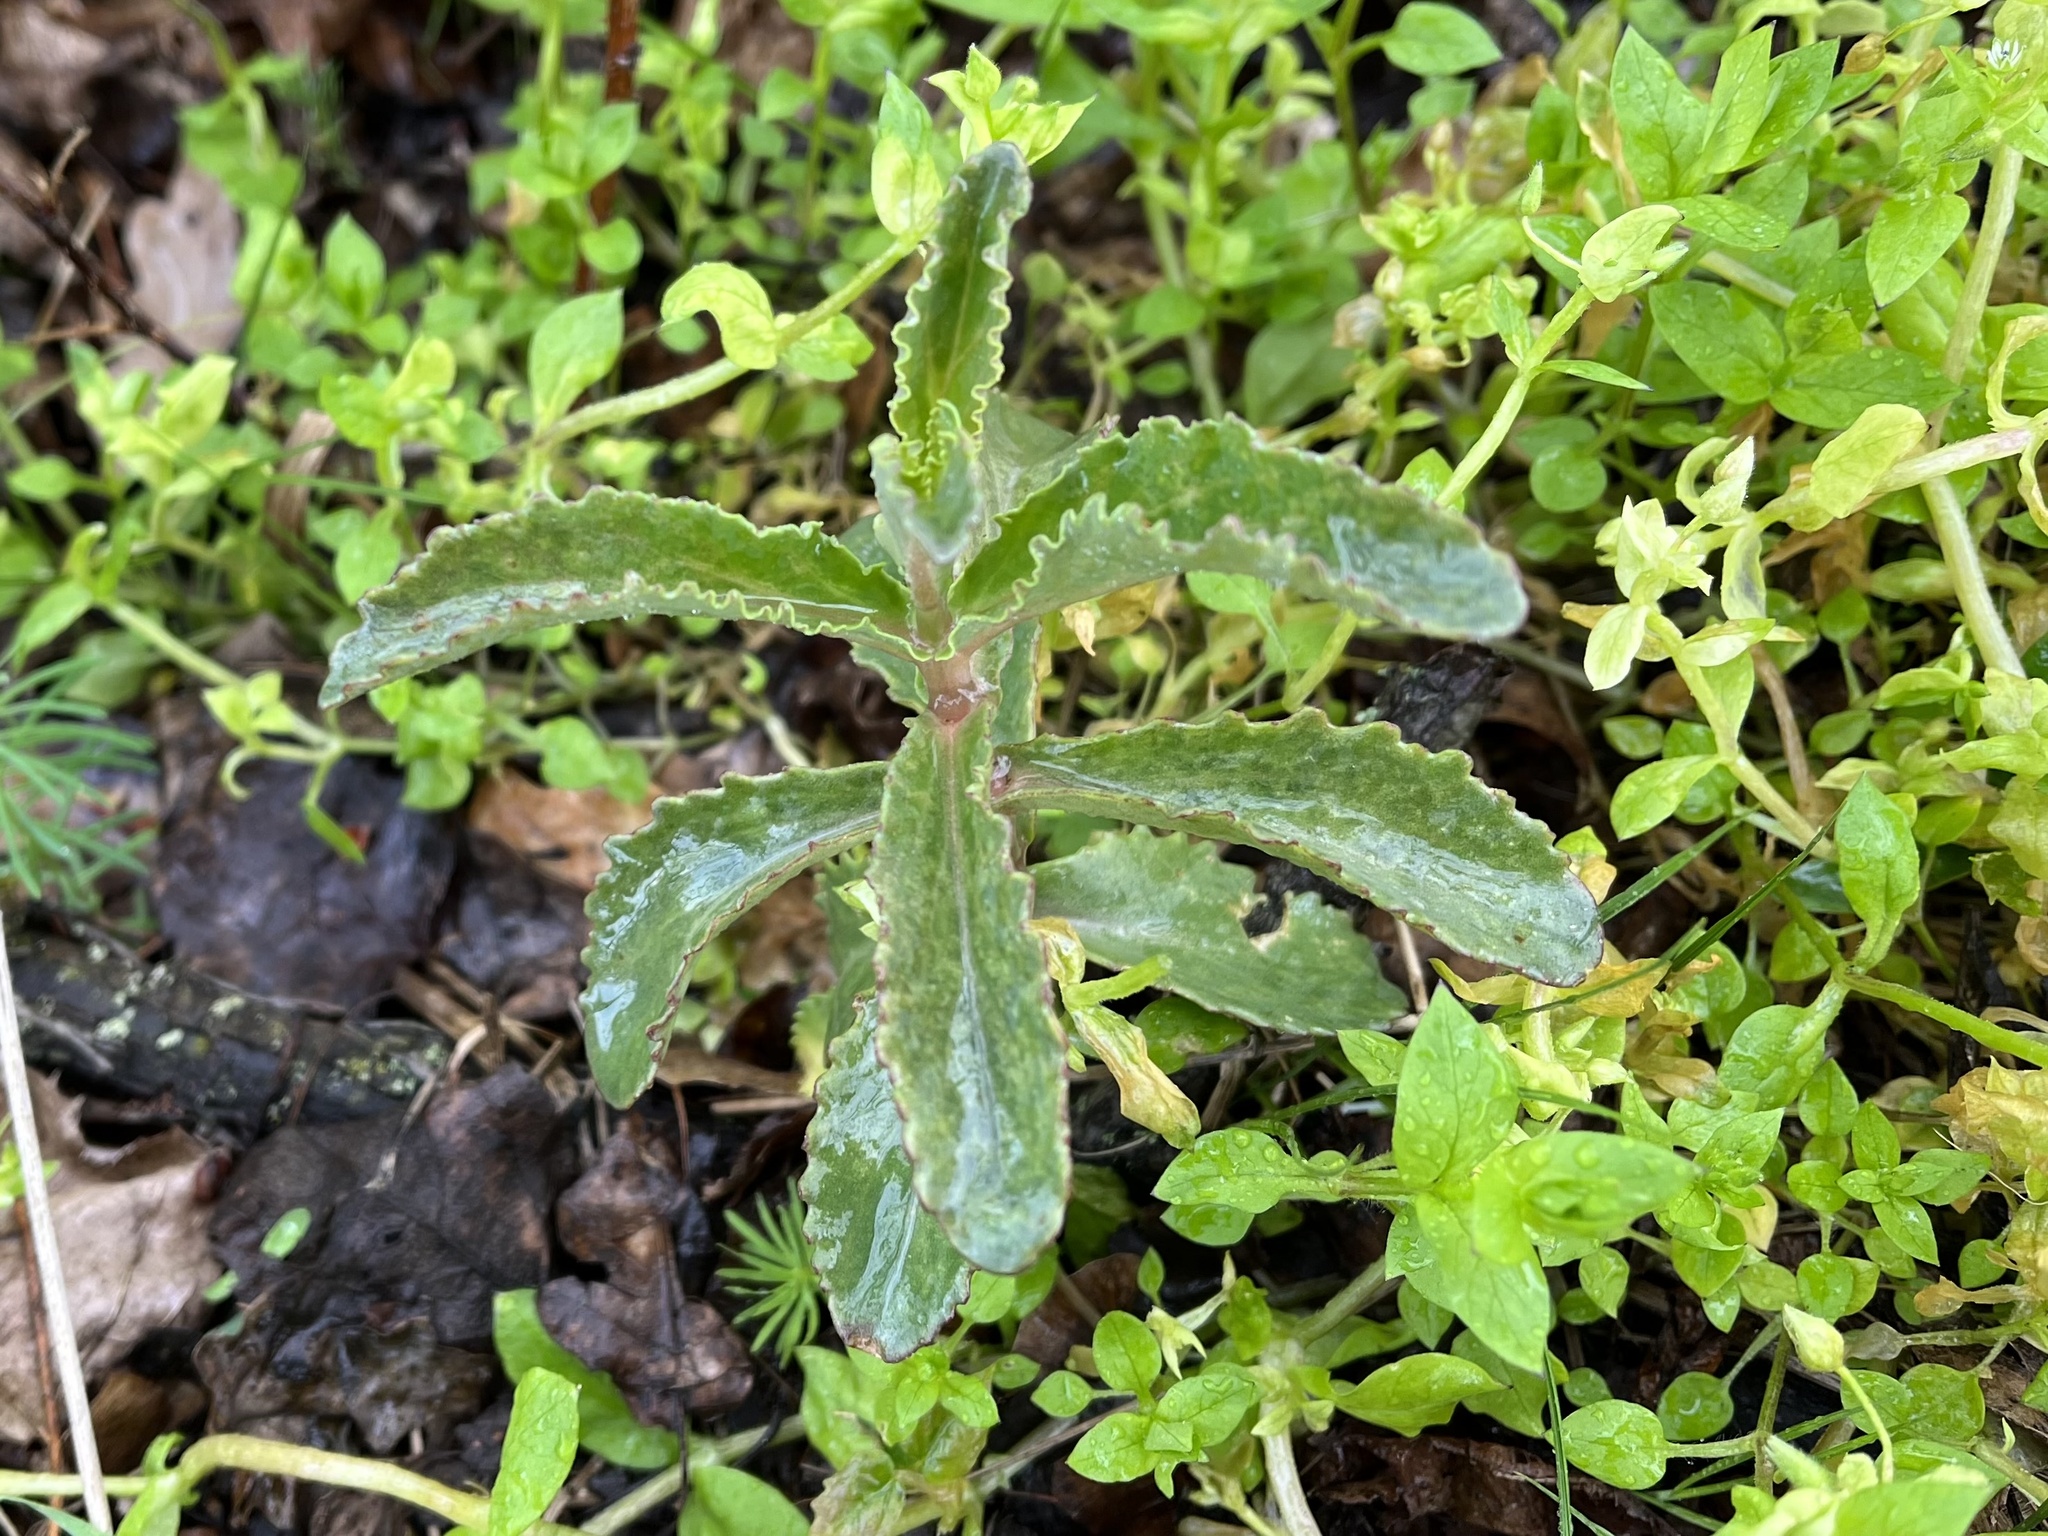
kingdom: Plantae
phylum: Tracheophyta
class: Magnoliopsida
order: Saxifragales
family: Crassulaceae
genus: Hylotelephium
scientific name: Hylotelephium maximum
